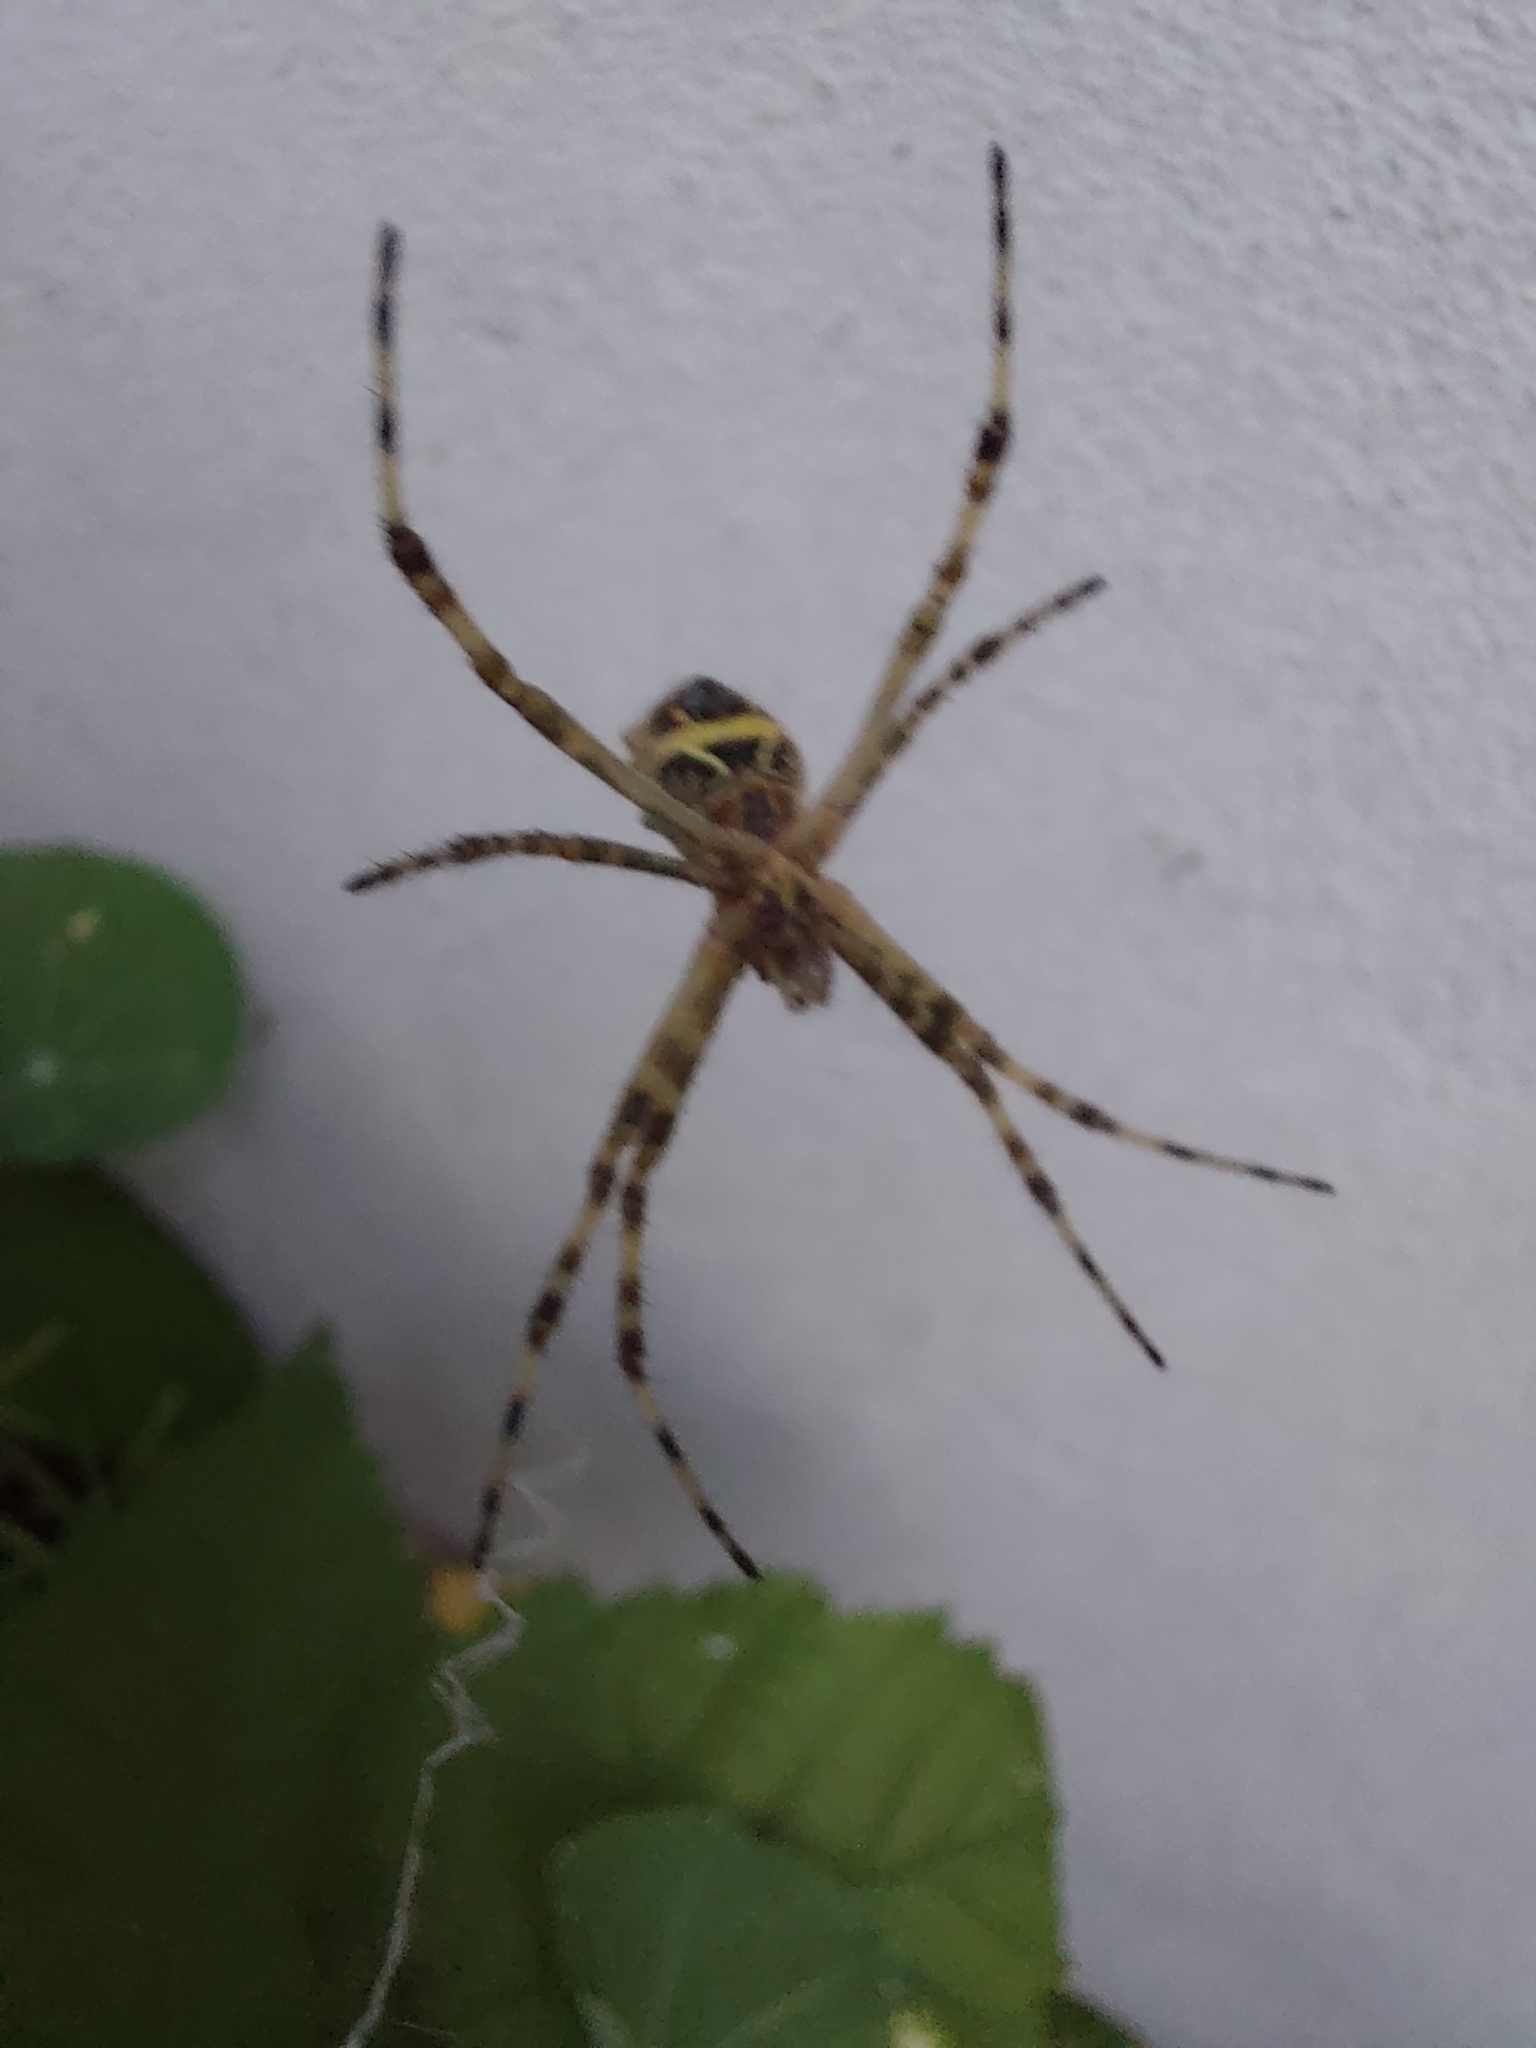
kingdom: Animalia
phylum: Arthropoda
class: Arachnida
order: Araneae
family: Araneidae
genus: Argiope
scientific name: Argiope argentata
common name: Orb weavers
